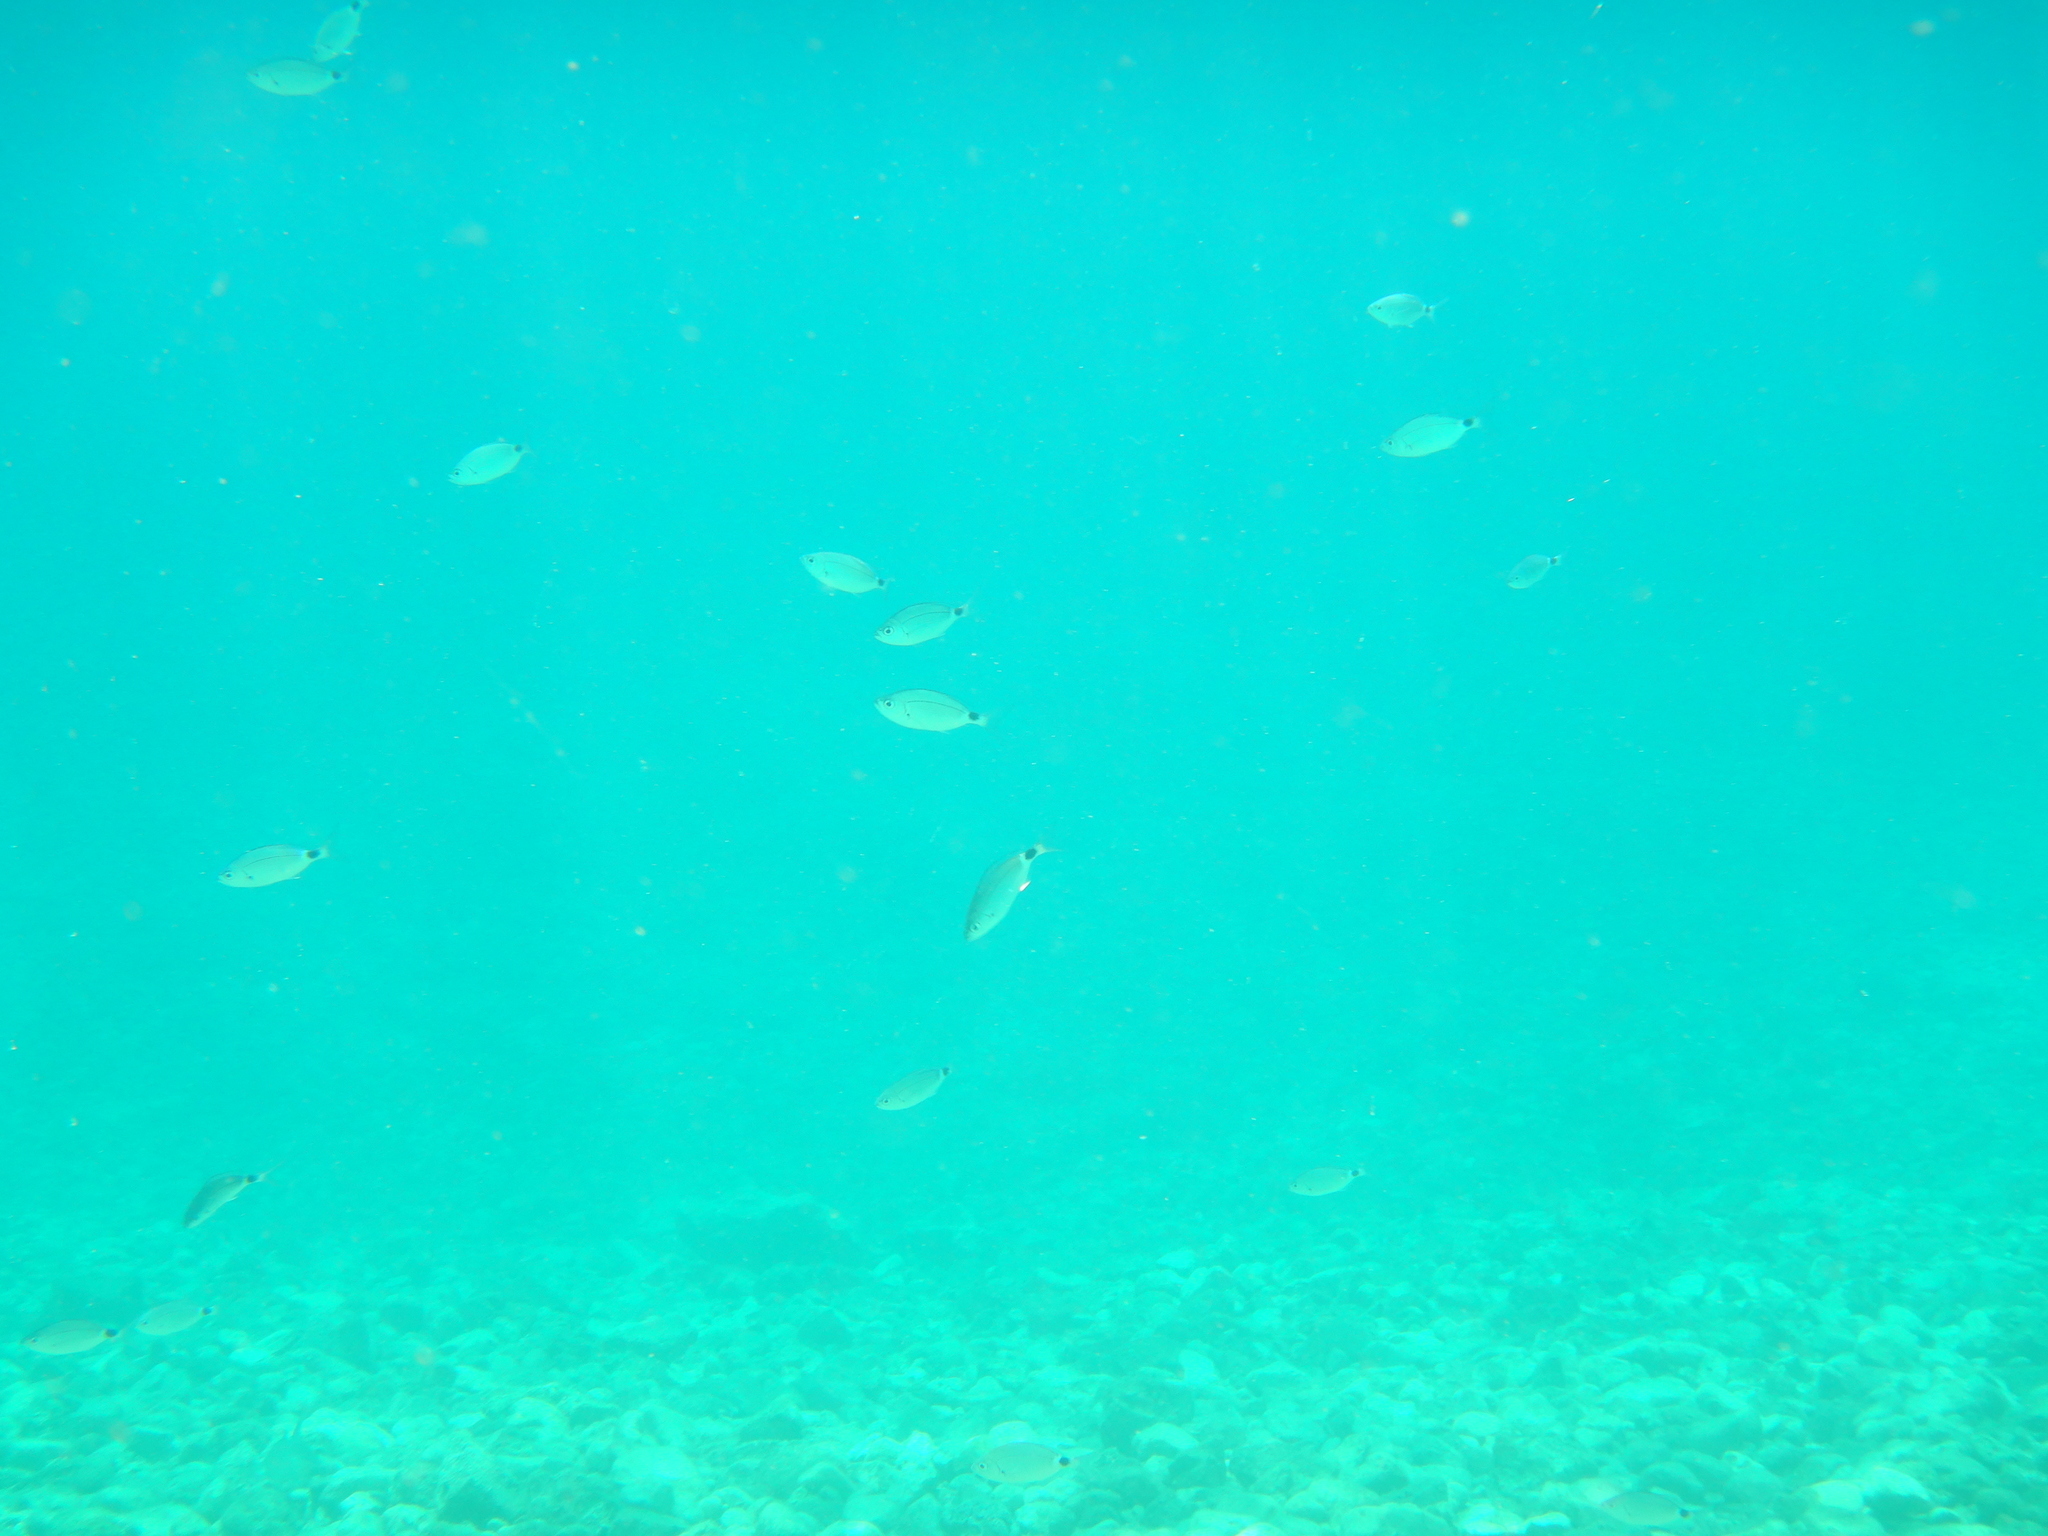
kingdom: Animalia
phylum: Chordata
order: Perciformes
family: Sparidae
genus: Oblada
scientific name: Oblada melanura
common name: Saddled seabream
